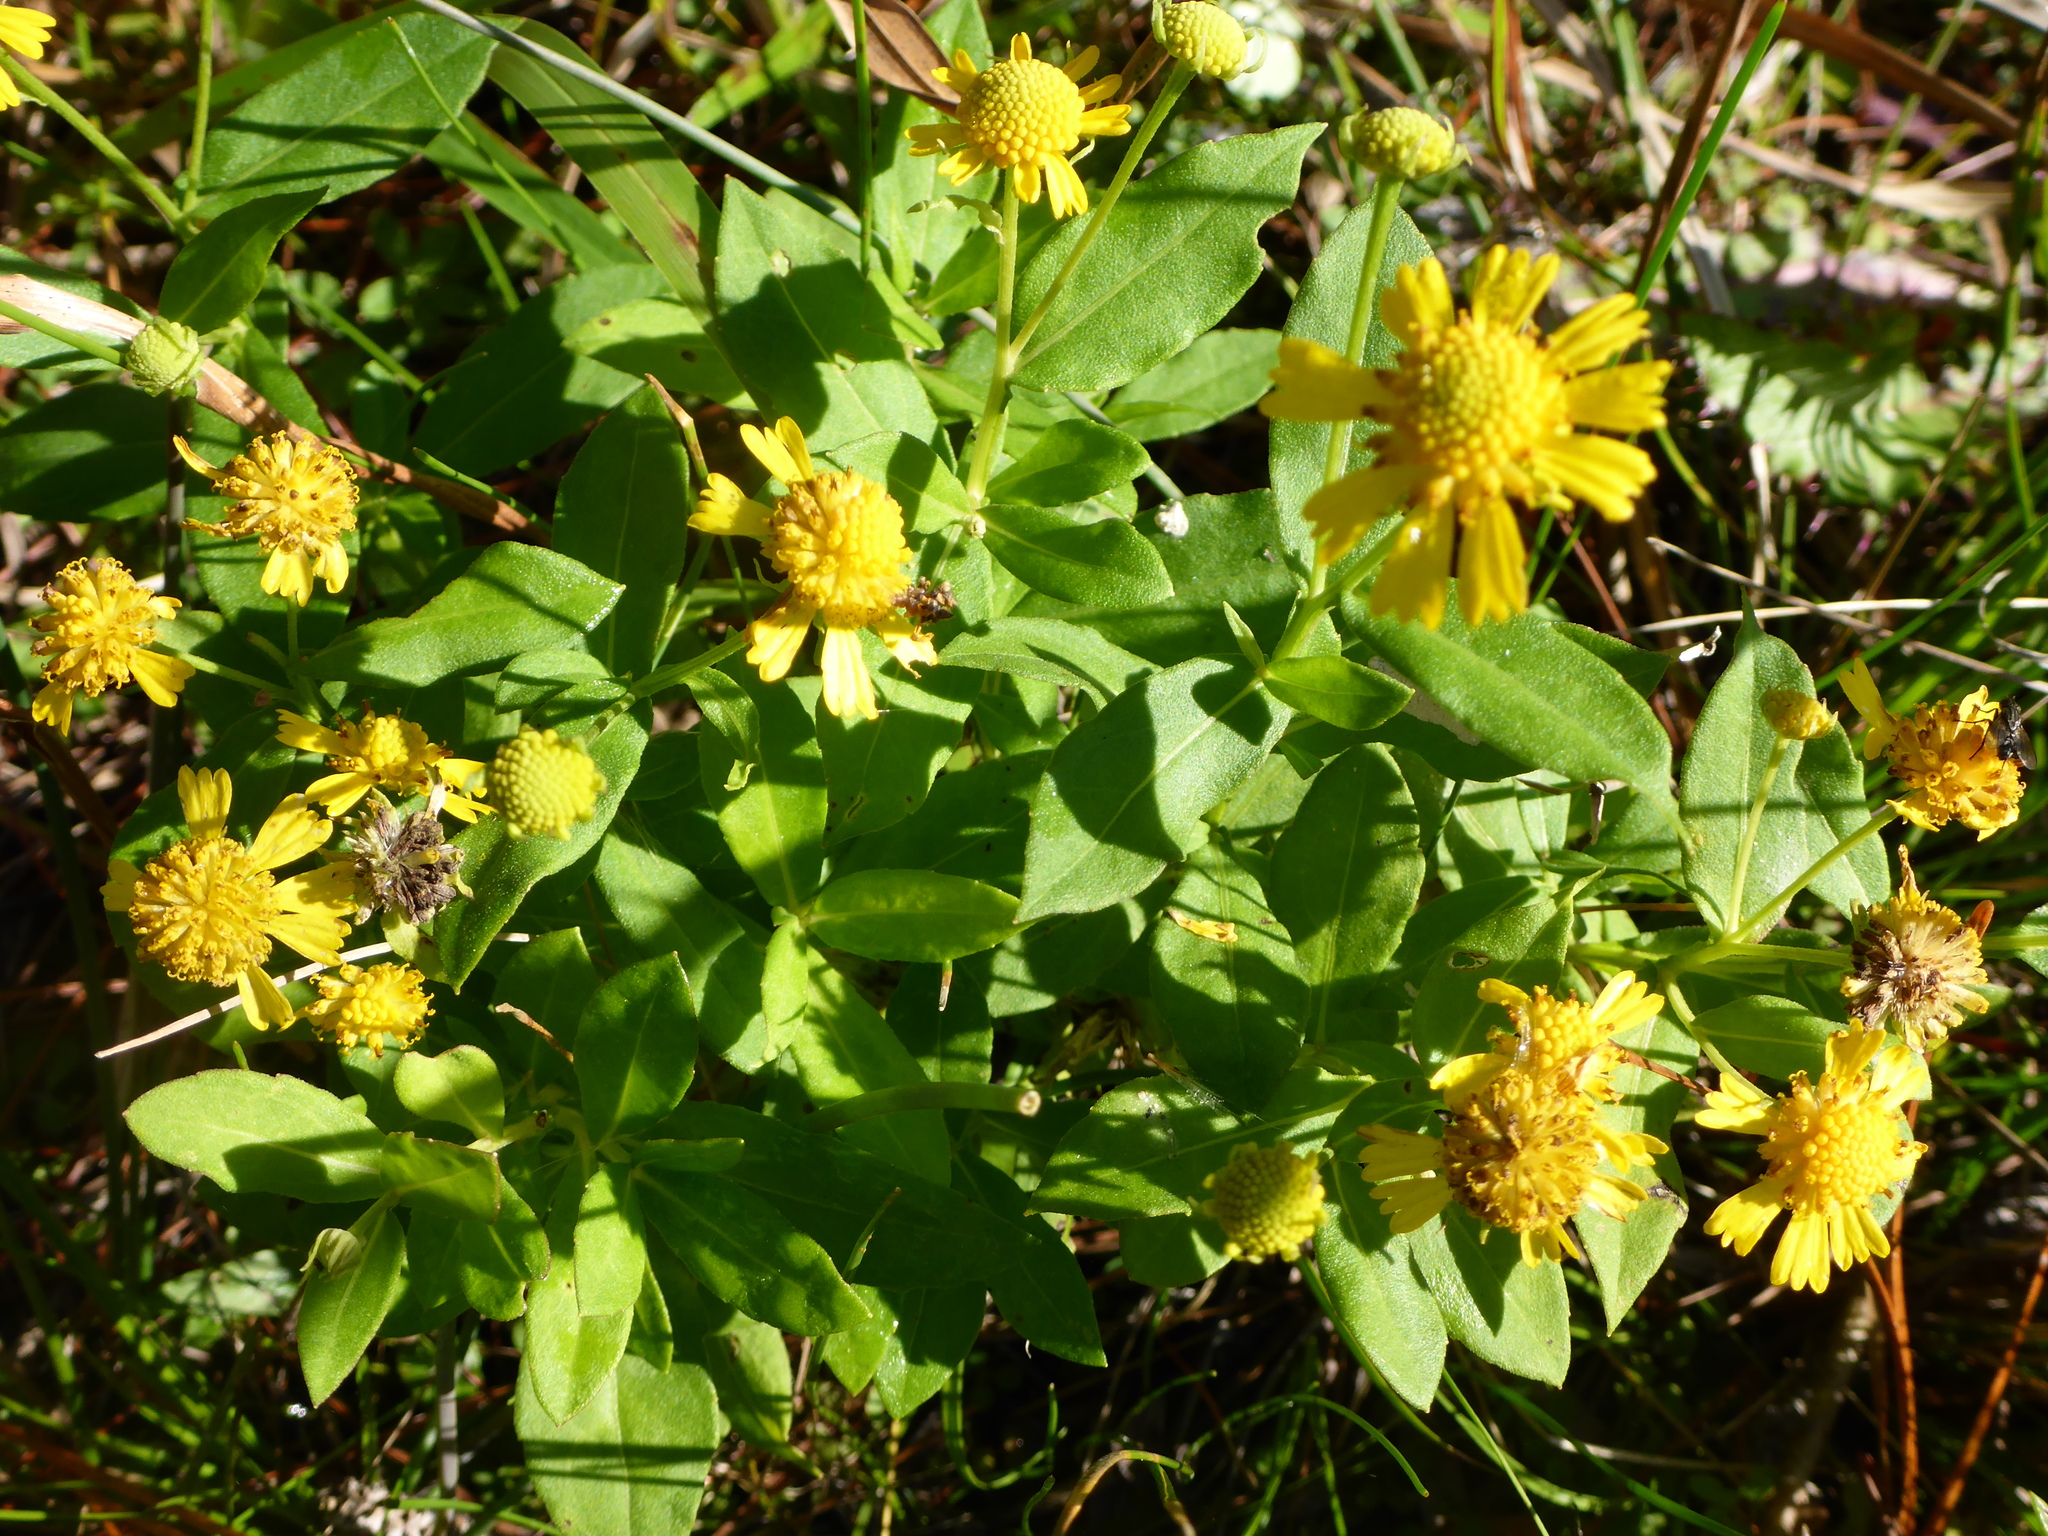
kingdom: Plantae
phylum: Tracheophyta
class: Magnoliopsida
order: Asterales
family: Asteraceae
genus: Helenium
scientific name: Helenium autumnale
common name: Sneezeweed
